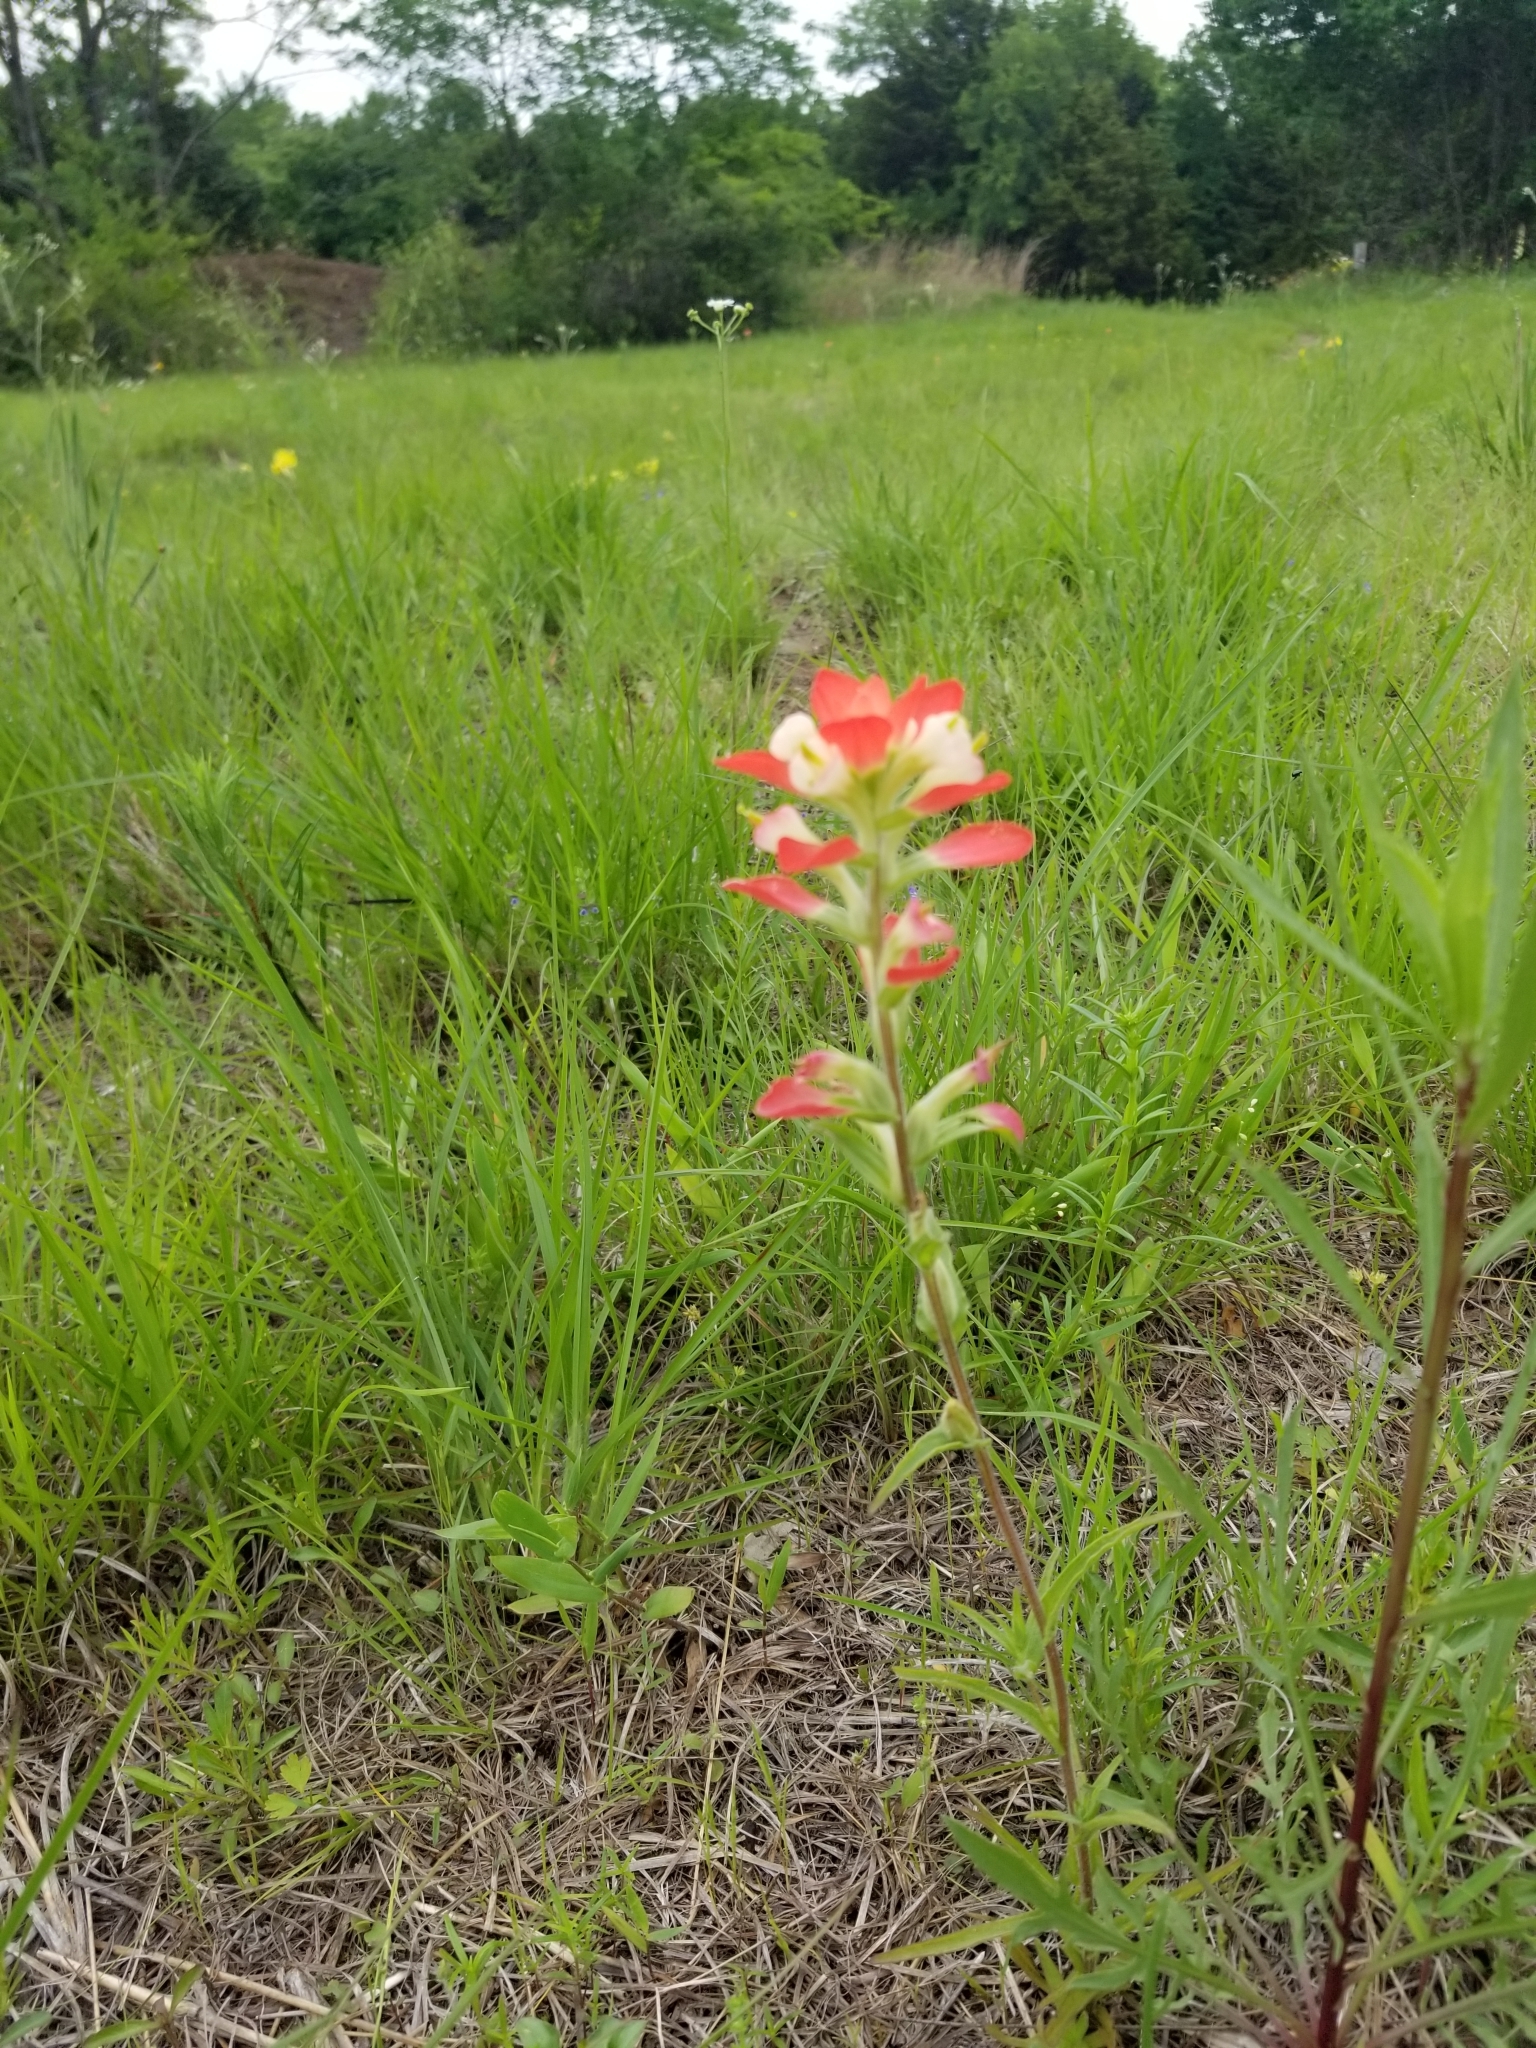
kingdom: Plantae
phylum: Tracheophyta
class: Magnoliopsida
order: Lamiales
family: Orobanchaceae
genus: Castilleja
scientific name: Castilleja indivisa
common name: Texas paintbrush
